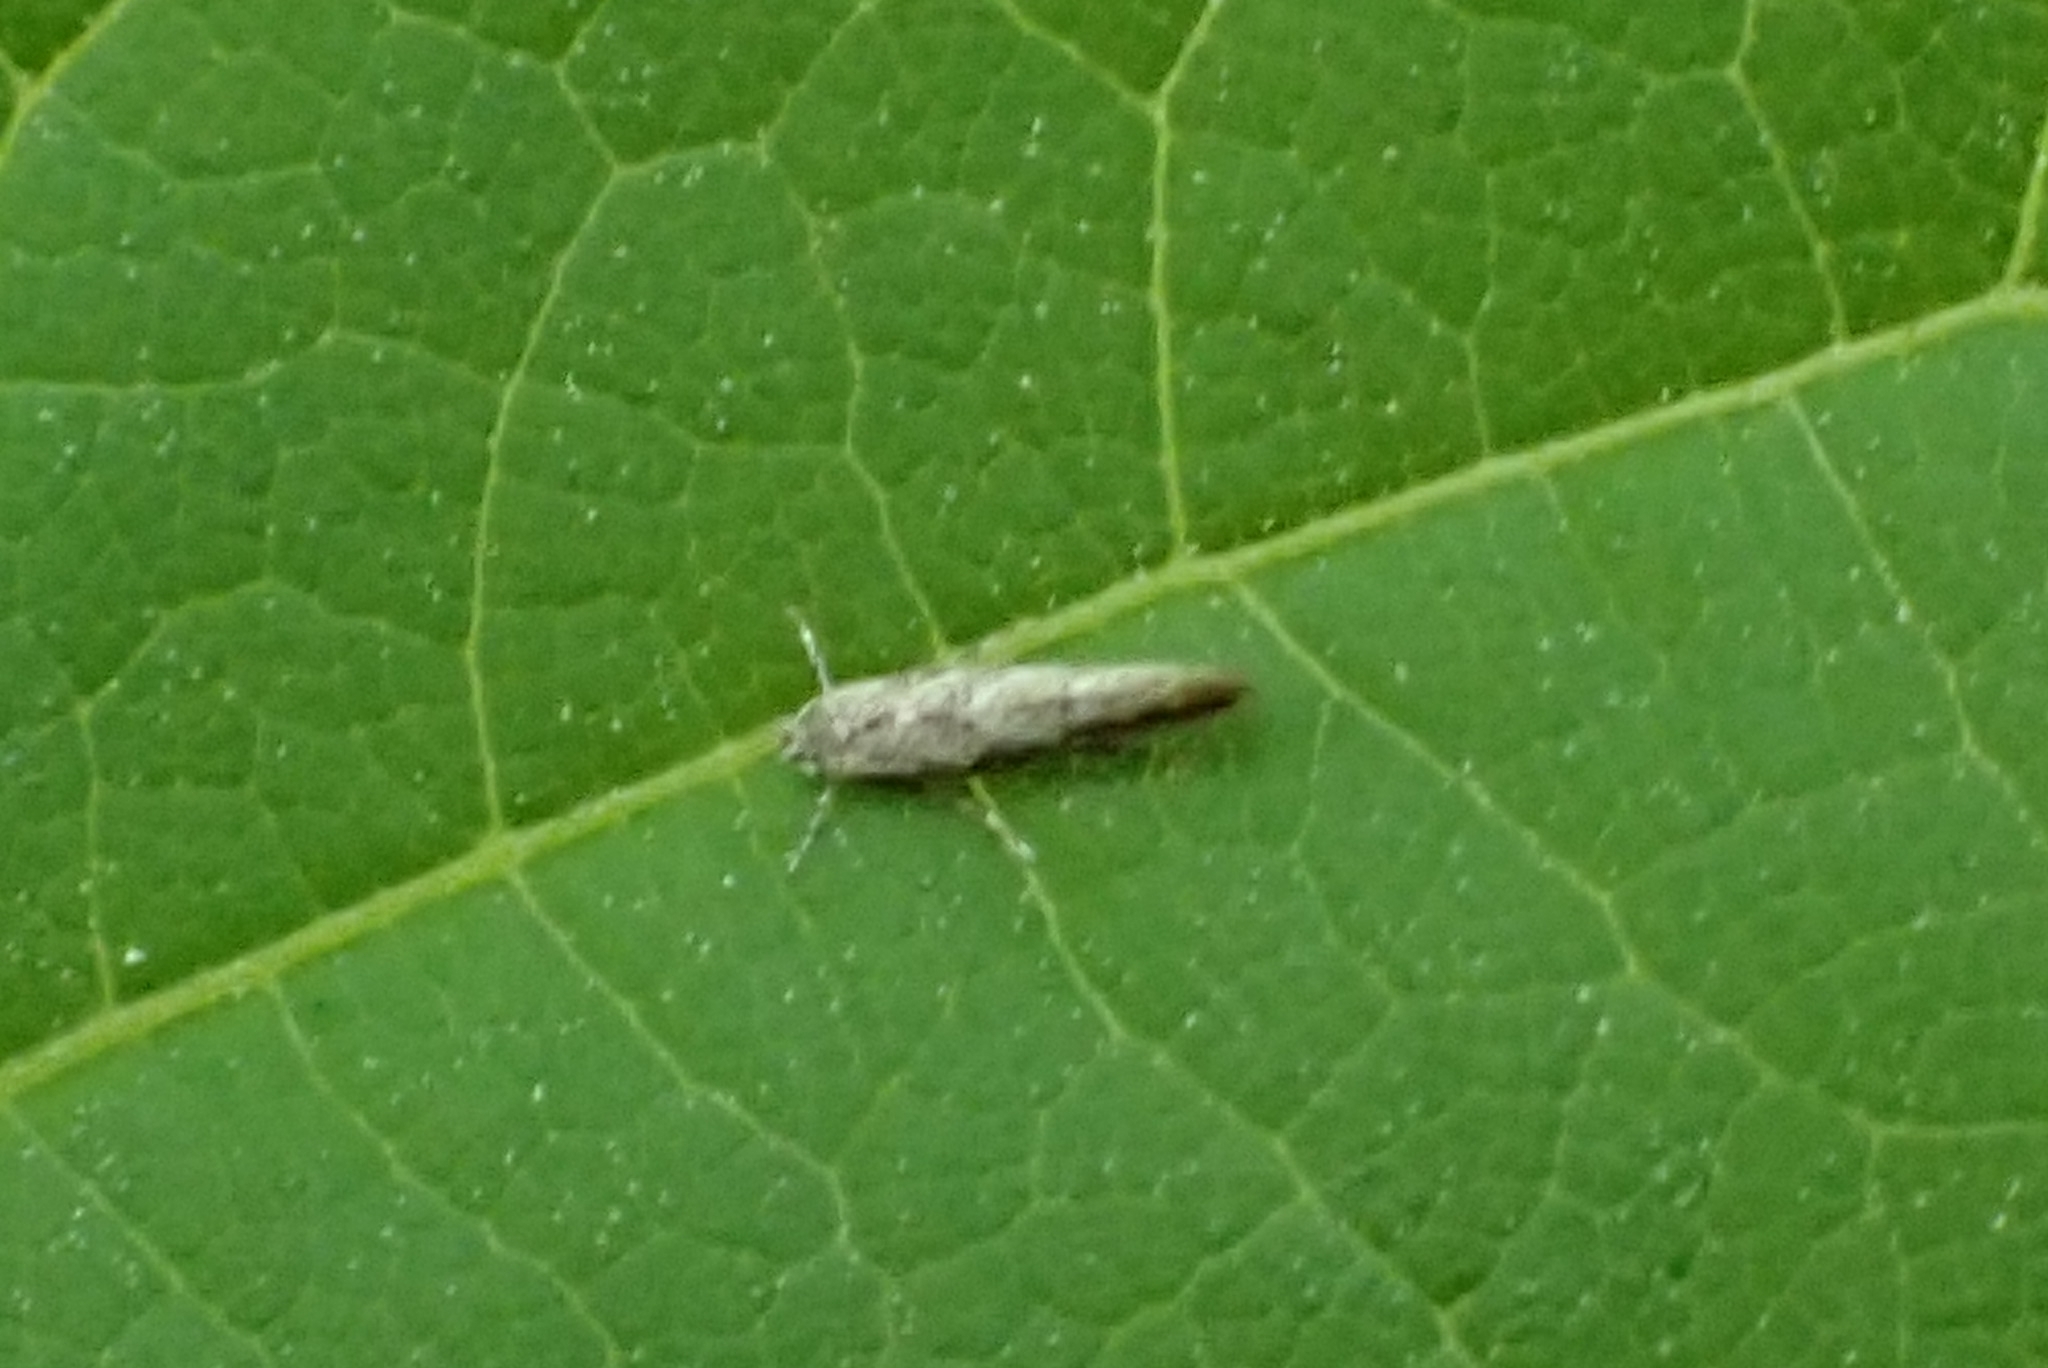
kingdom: Animalia
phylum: Arthropoda
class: Insecta
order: Lepidoptera
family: Gracillariidae
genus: Phyllonorycter
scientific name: Phyllonorycter issikii
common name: Linden midget
